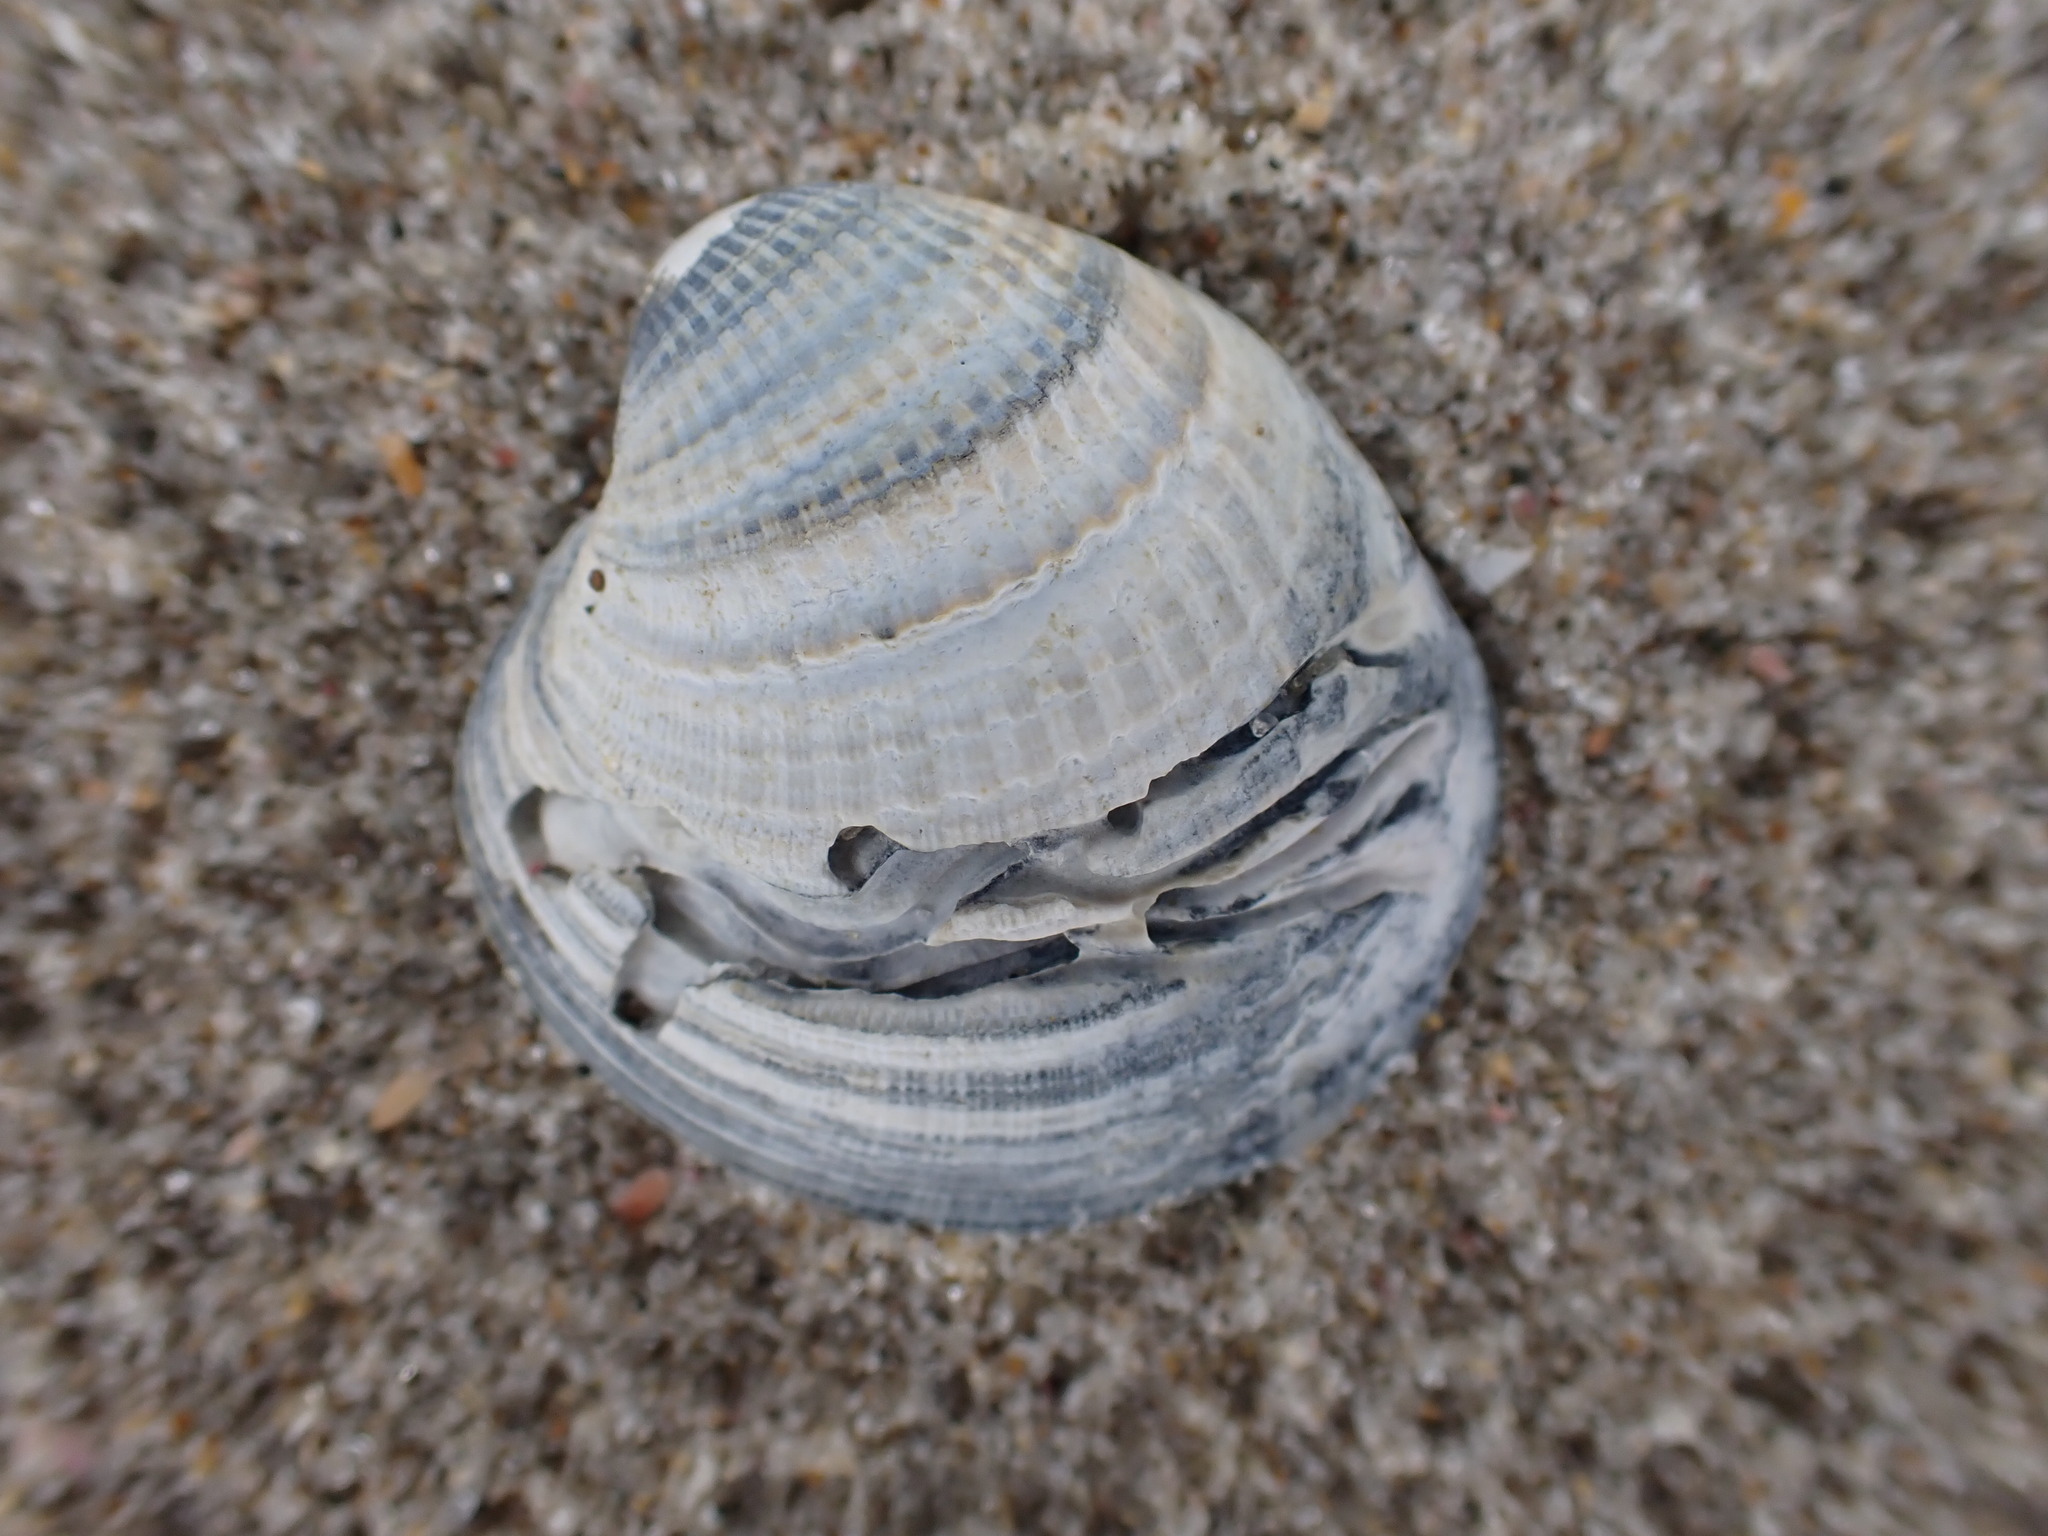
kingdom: Animalia
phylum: Mollusca
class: Bivalvia
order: Venerida
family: Veneridae
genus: Austrovenus
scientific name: Austrovenus stutchburyi
